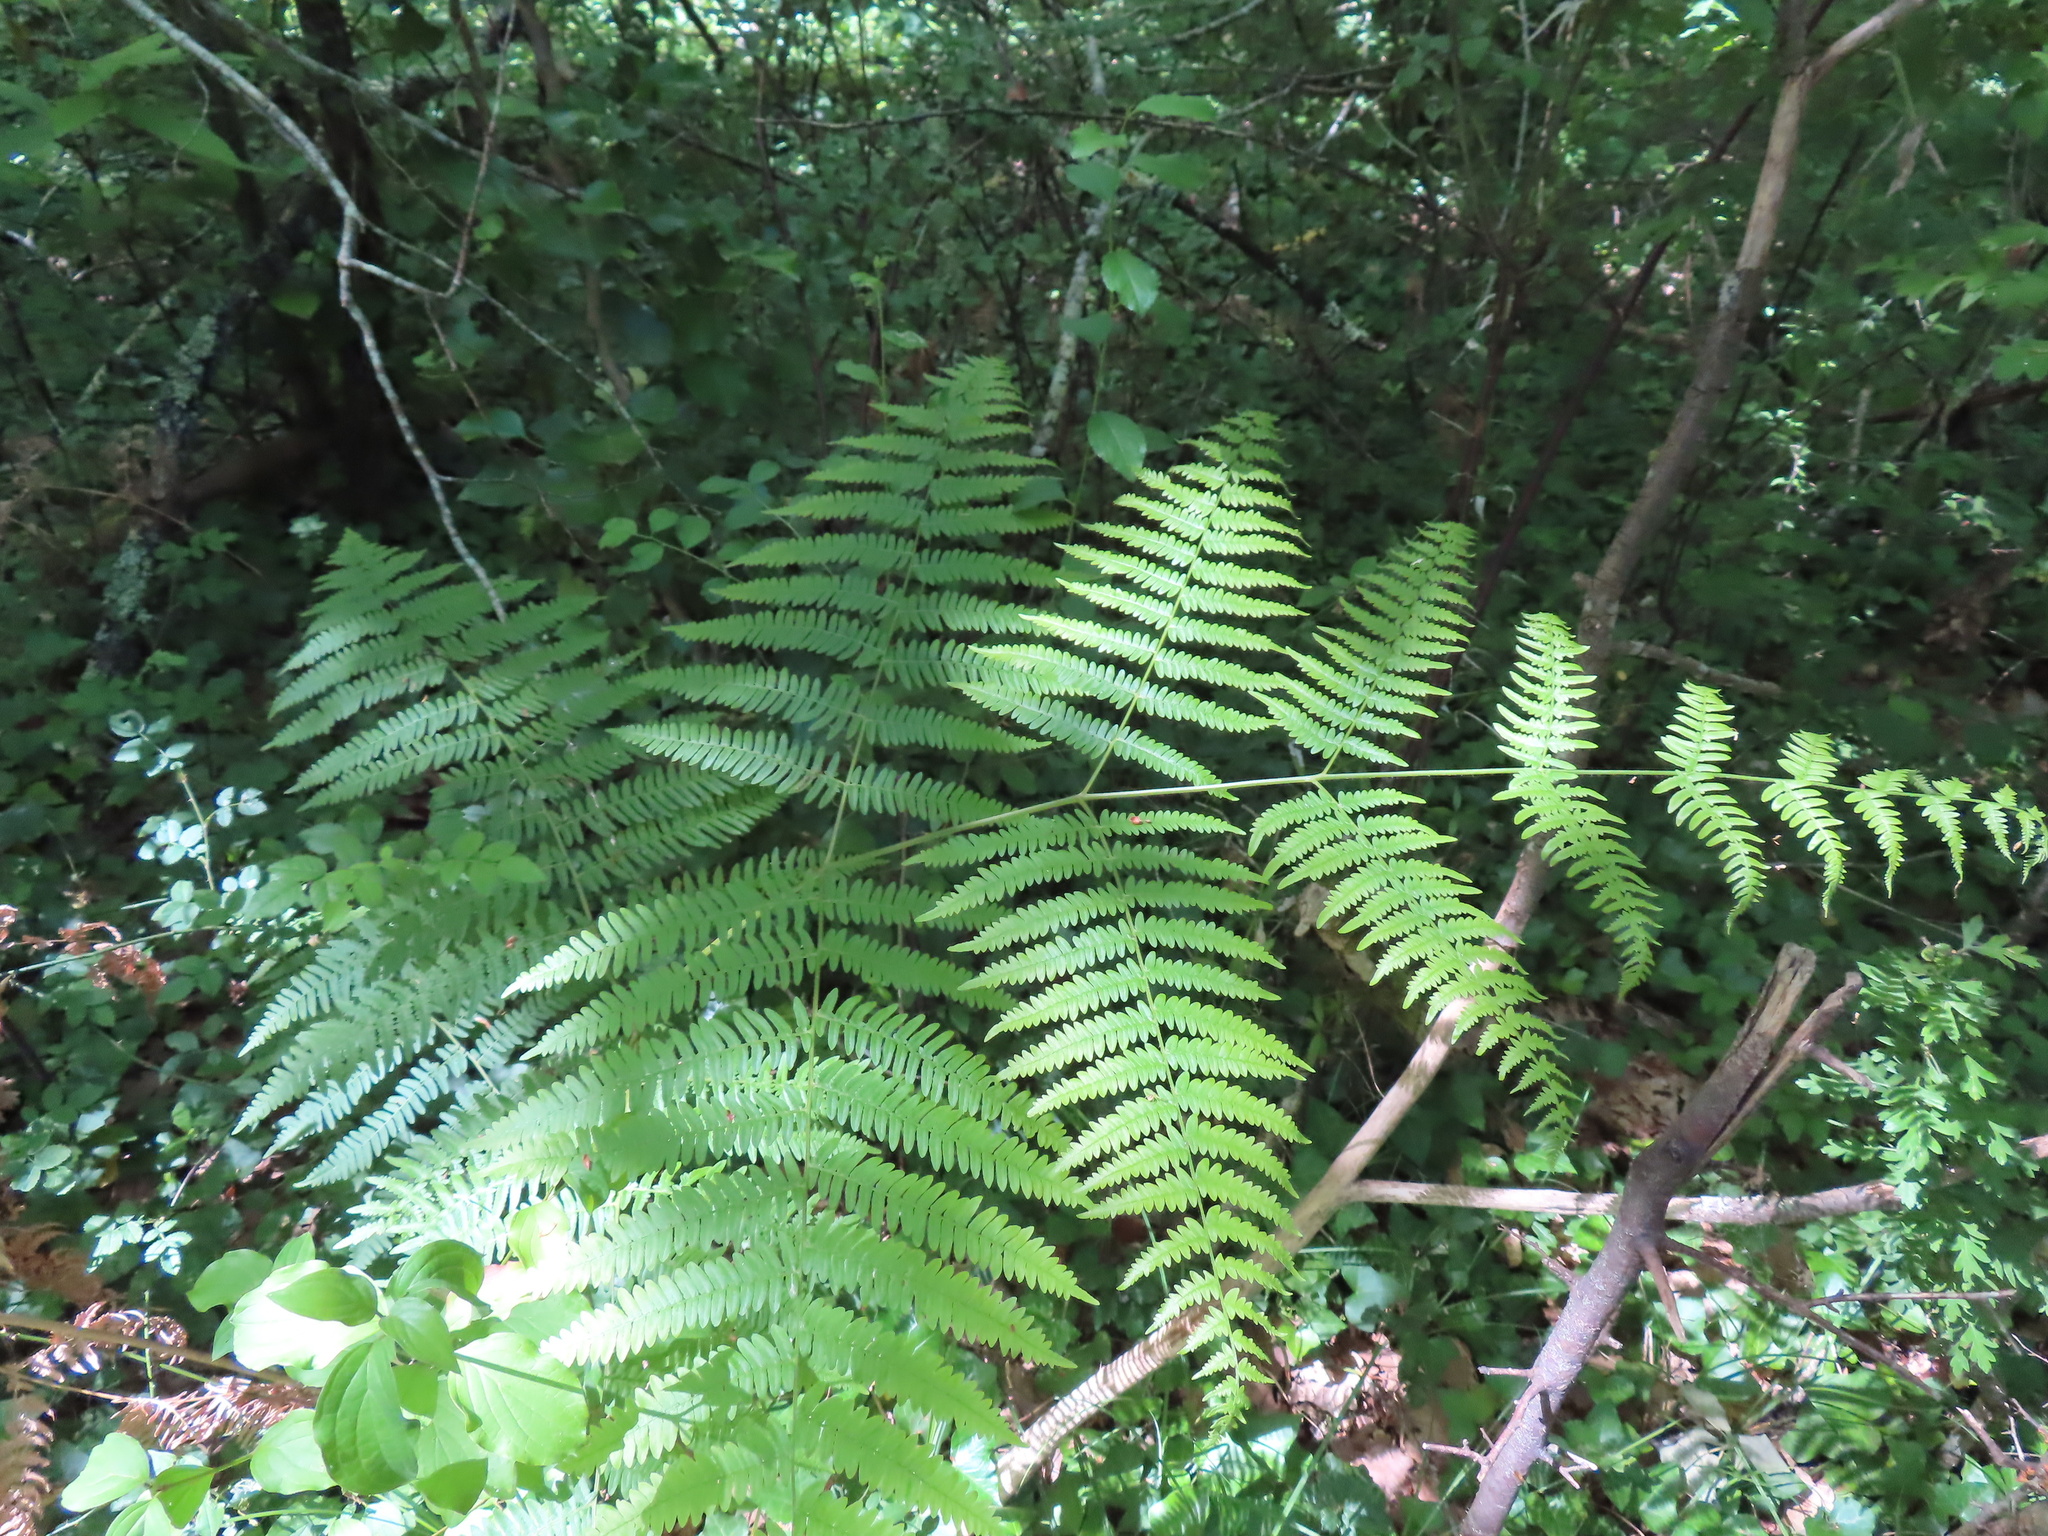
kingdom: Plantae
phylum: Tracheophyta
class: Polypodiopsida
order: Polypodiales
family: Dennstaedtiaceae
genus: Pteridium
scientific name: Pteridium aquilinum
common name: Bracken
